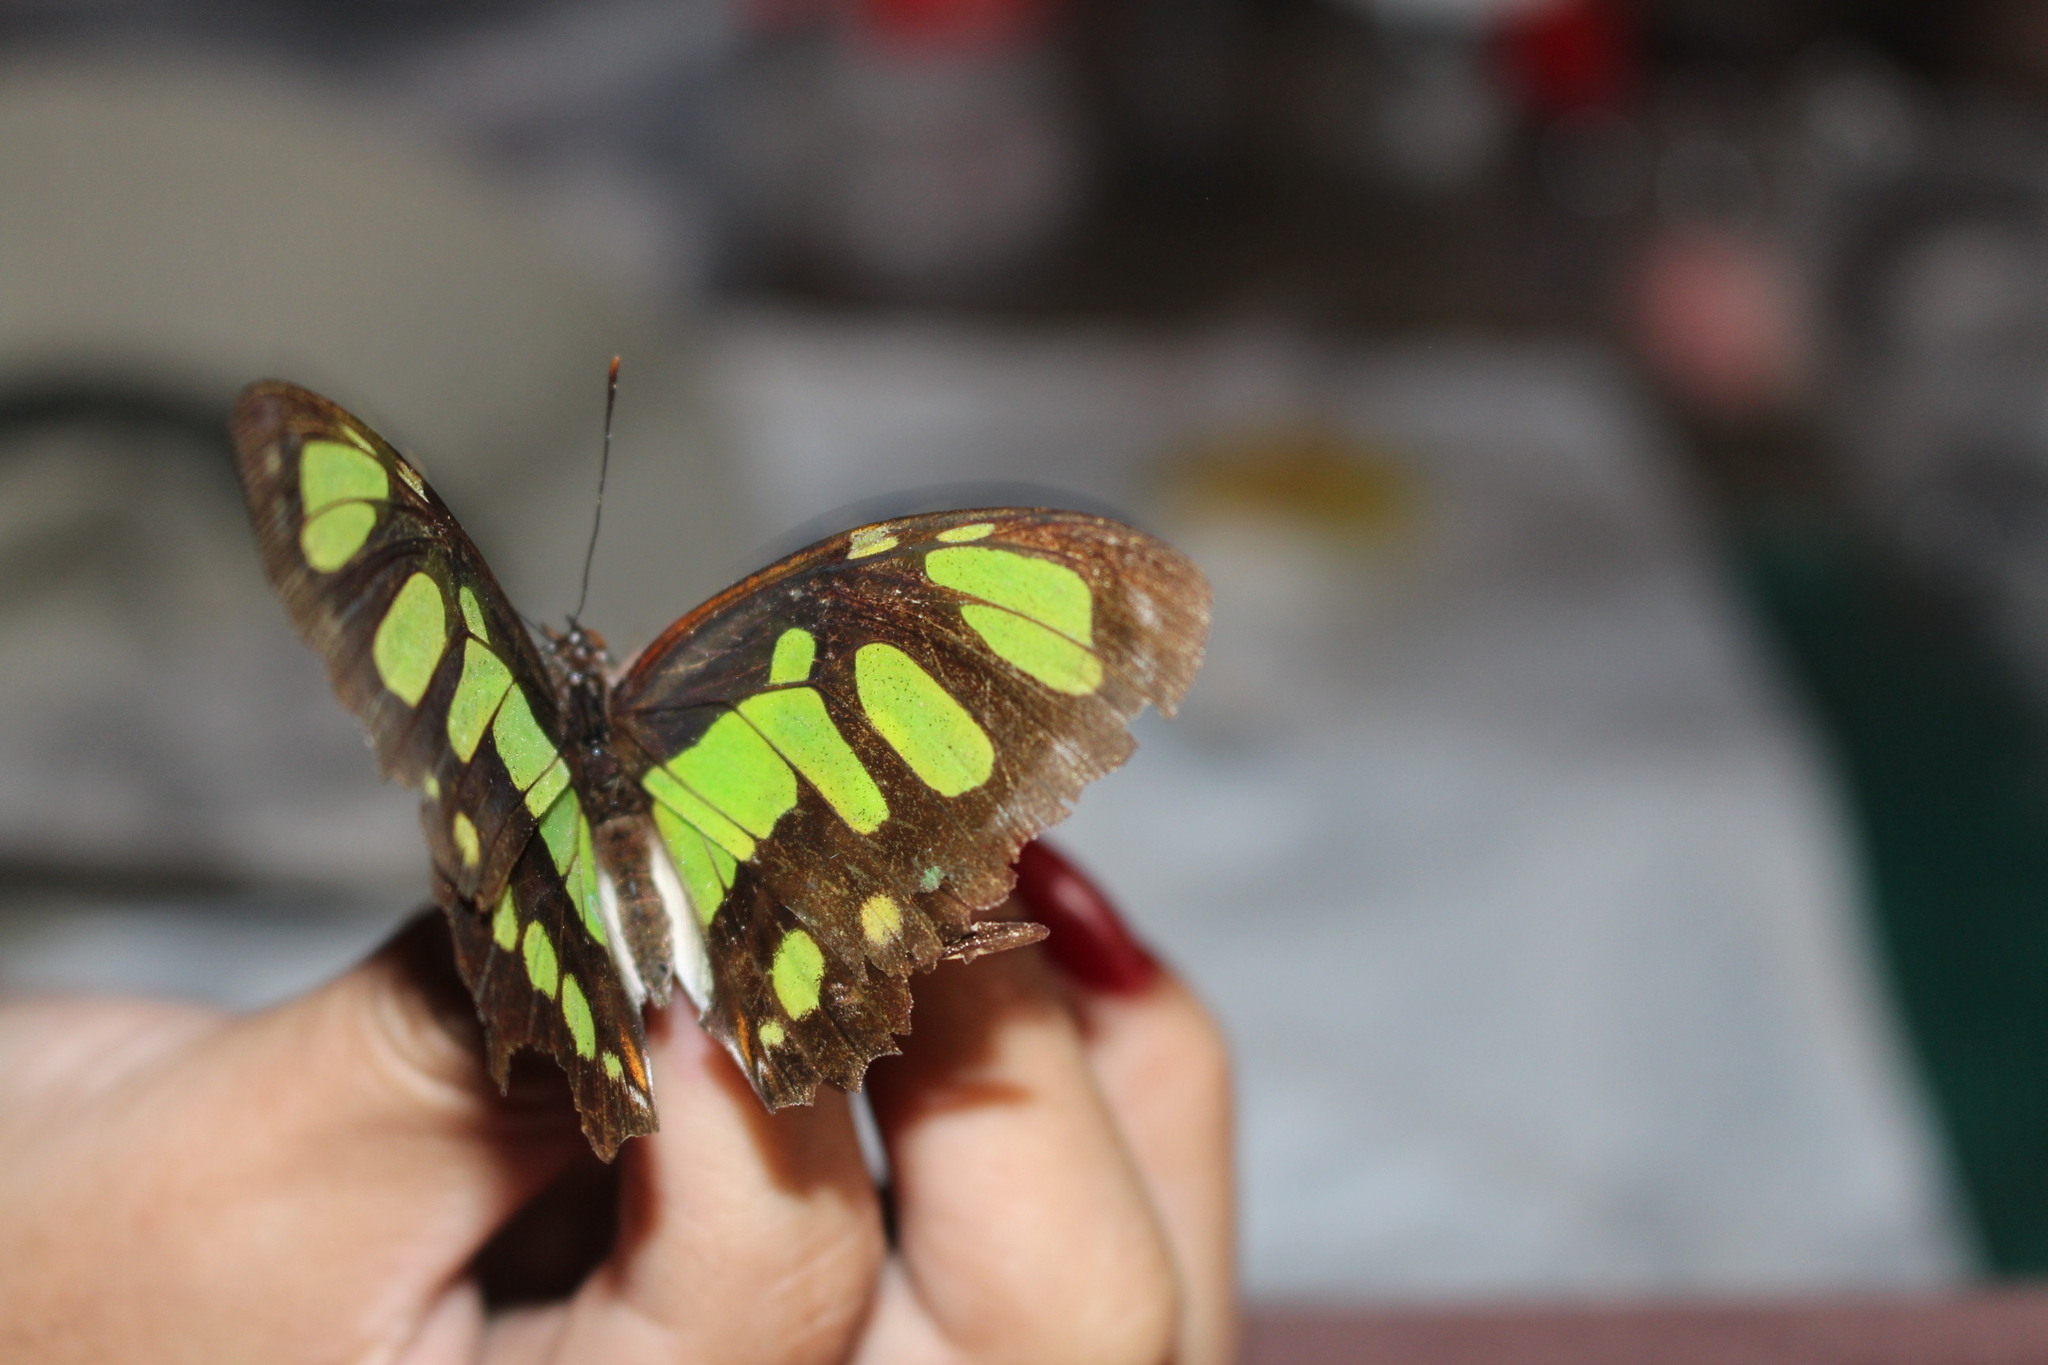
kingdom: Animalia
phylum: Arthropoda
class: Insecta
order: Lepidoptera
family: Nymphalidae
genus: Siproeta
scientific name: Siproeta stelenes
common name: Malachite
